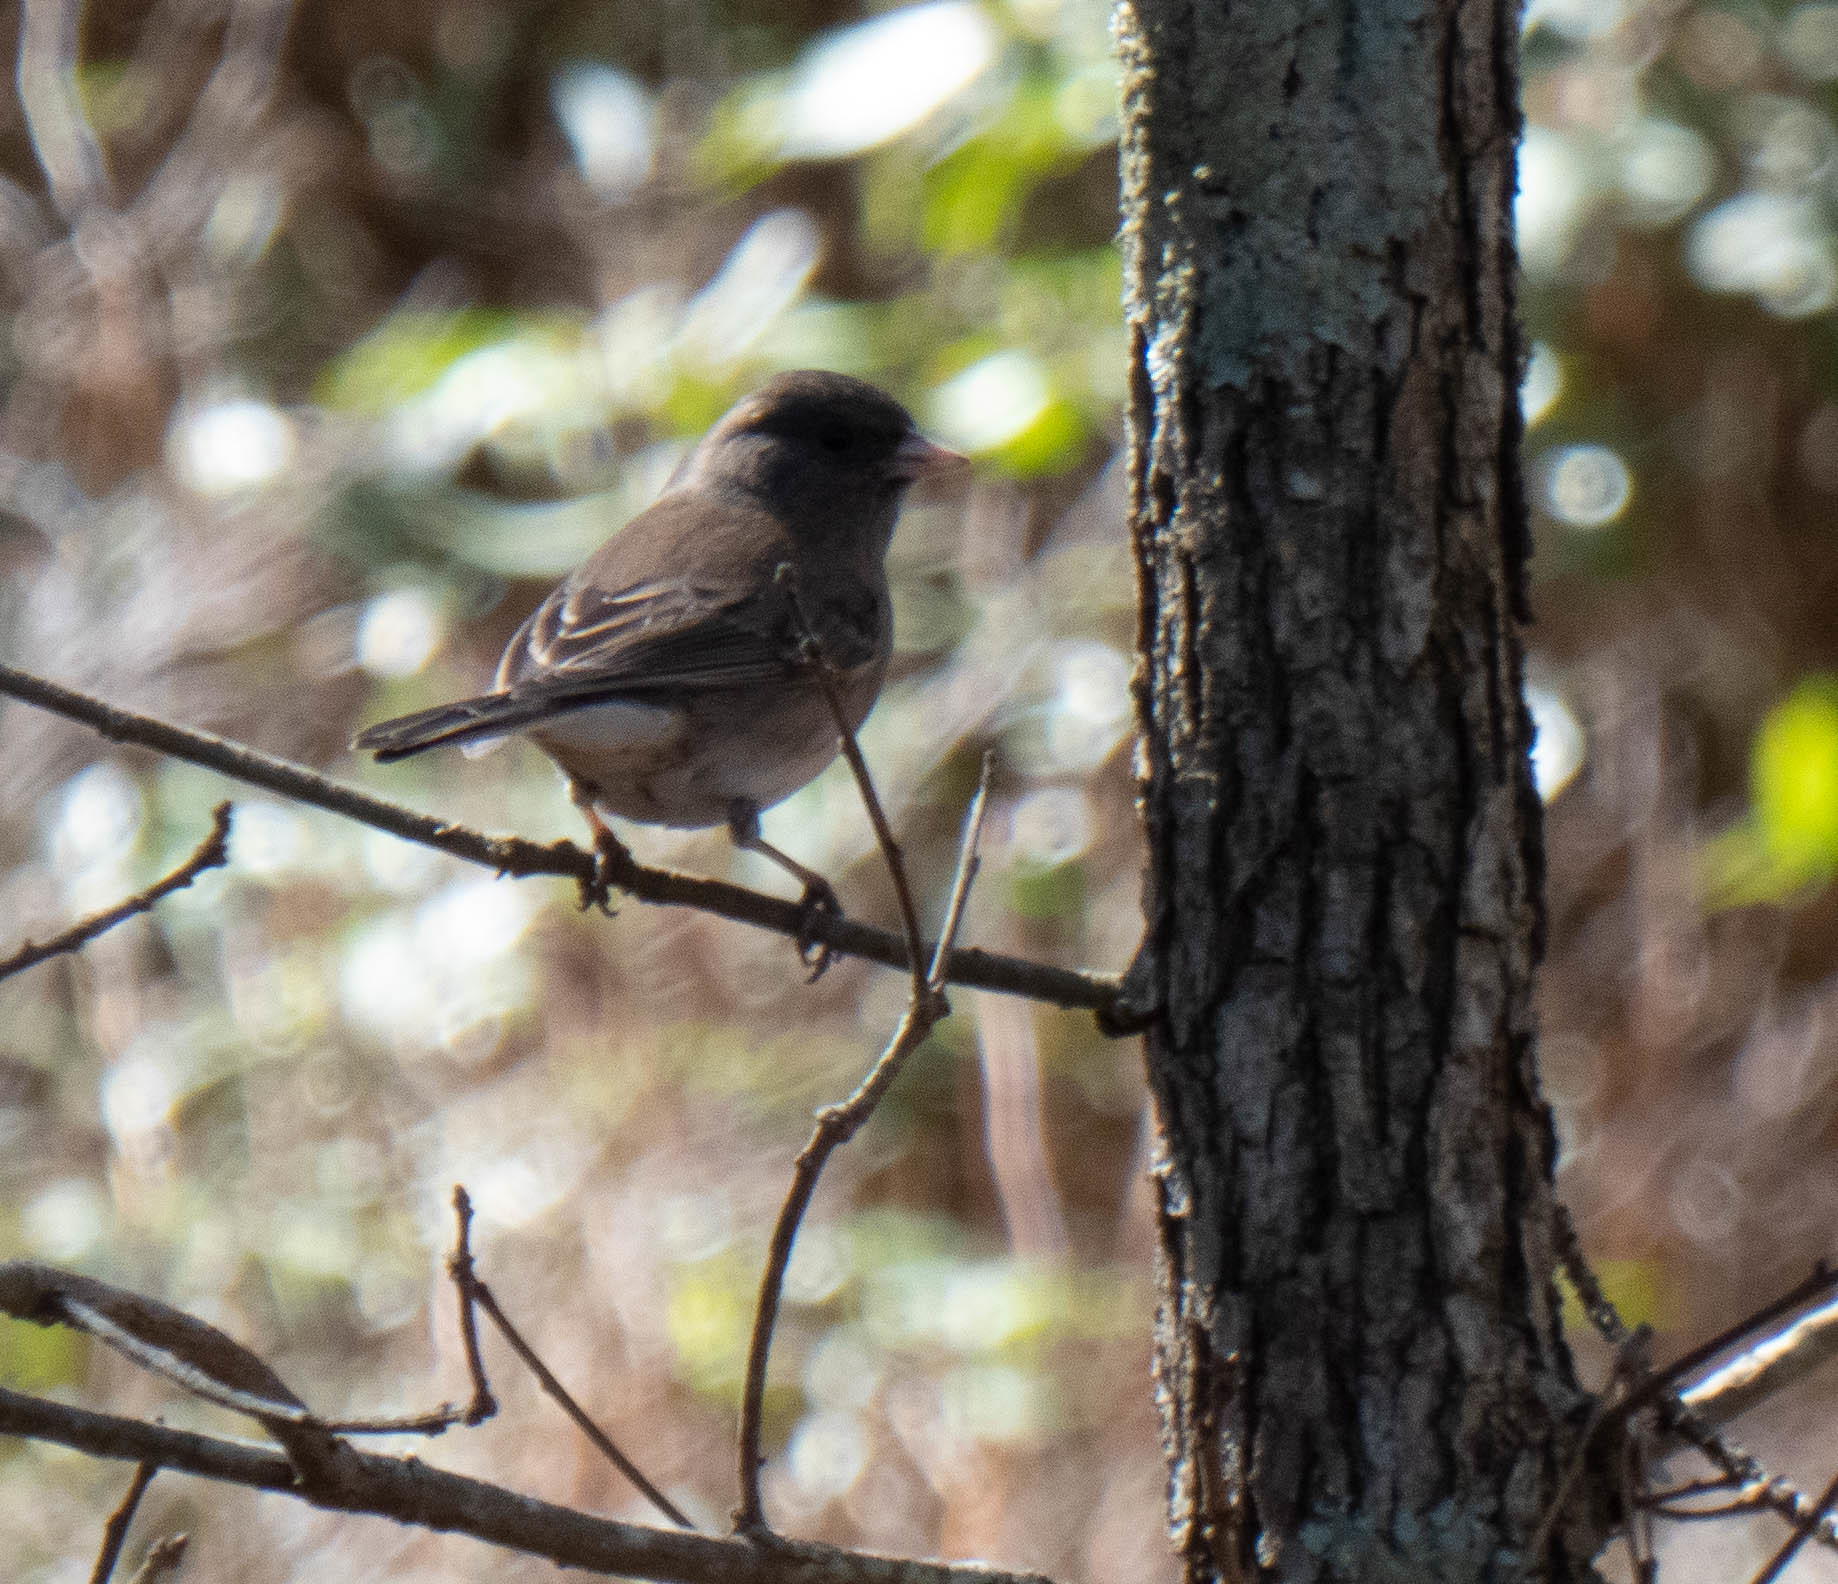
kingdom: Animalia
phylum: Chordata
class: Aves
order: Passeriformes
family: Passerellidae
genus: Junco
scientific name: Junco hyemalis
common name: Dark-eyed junco
